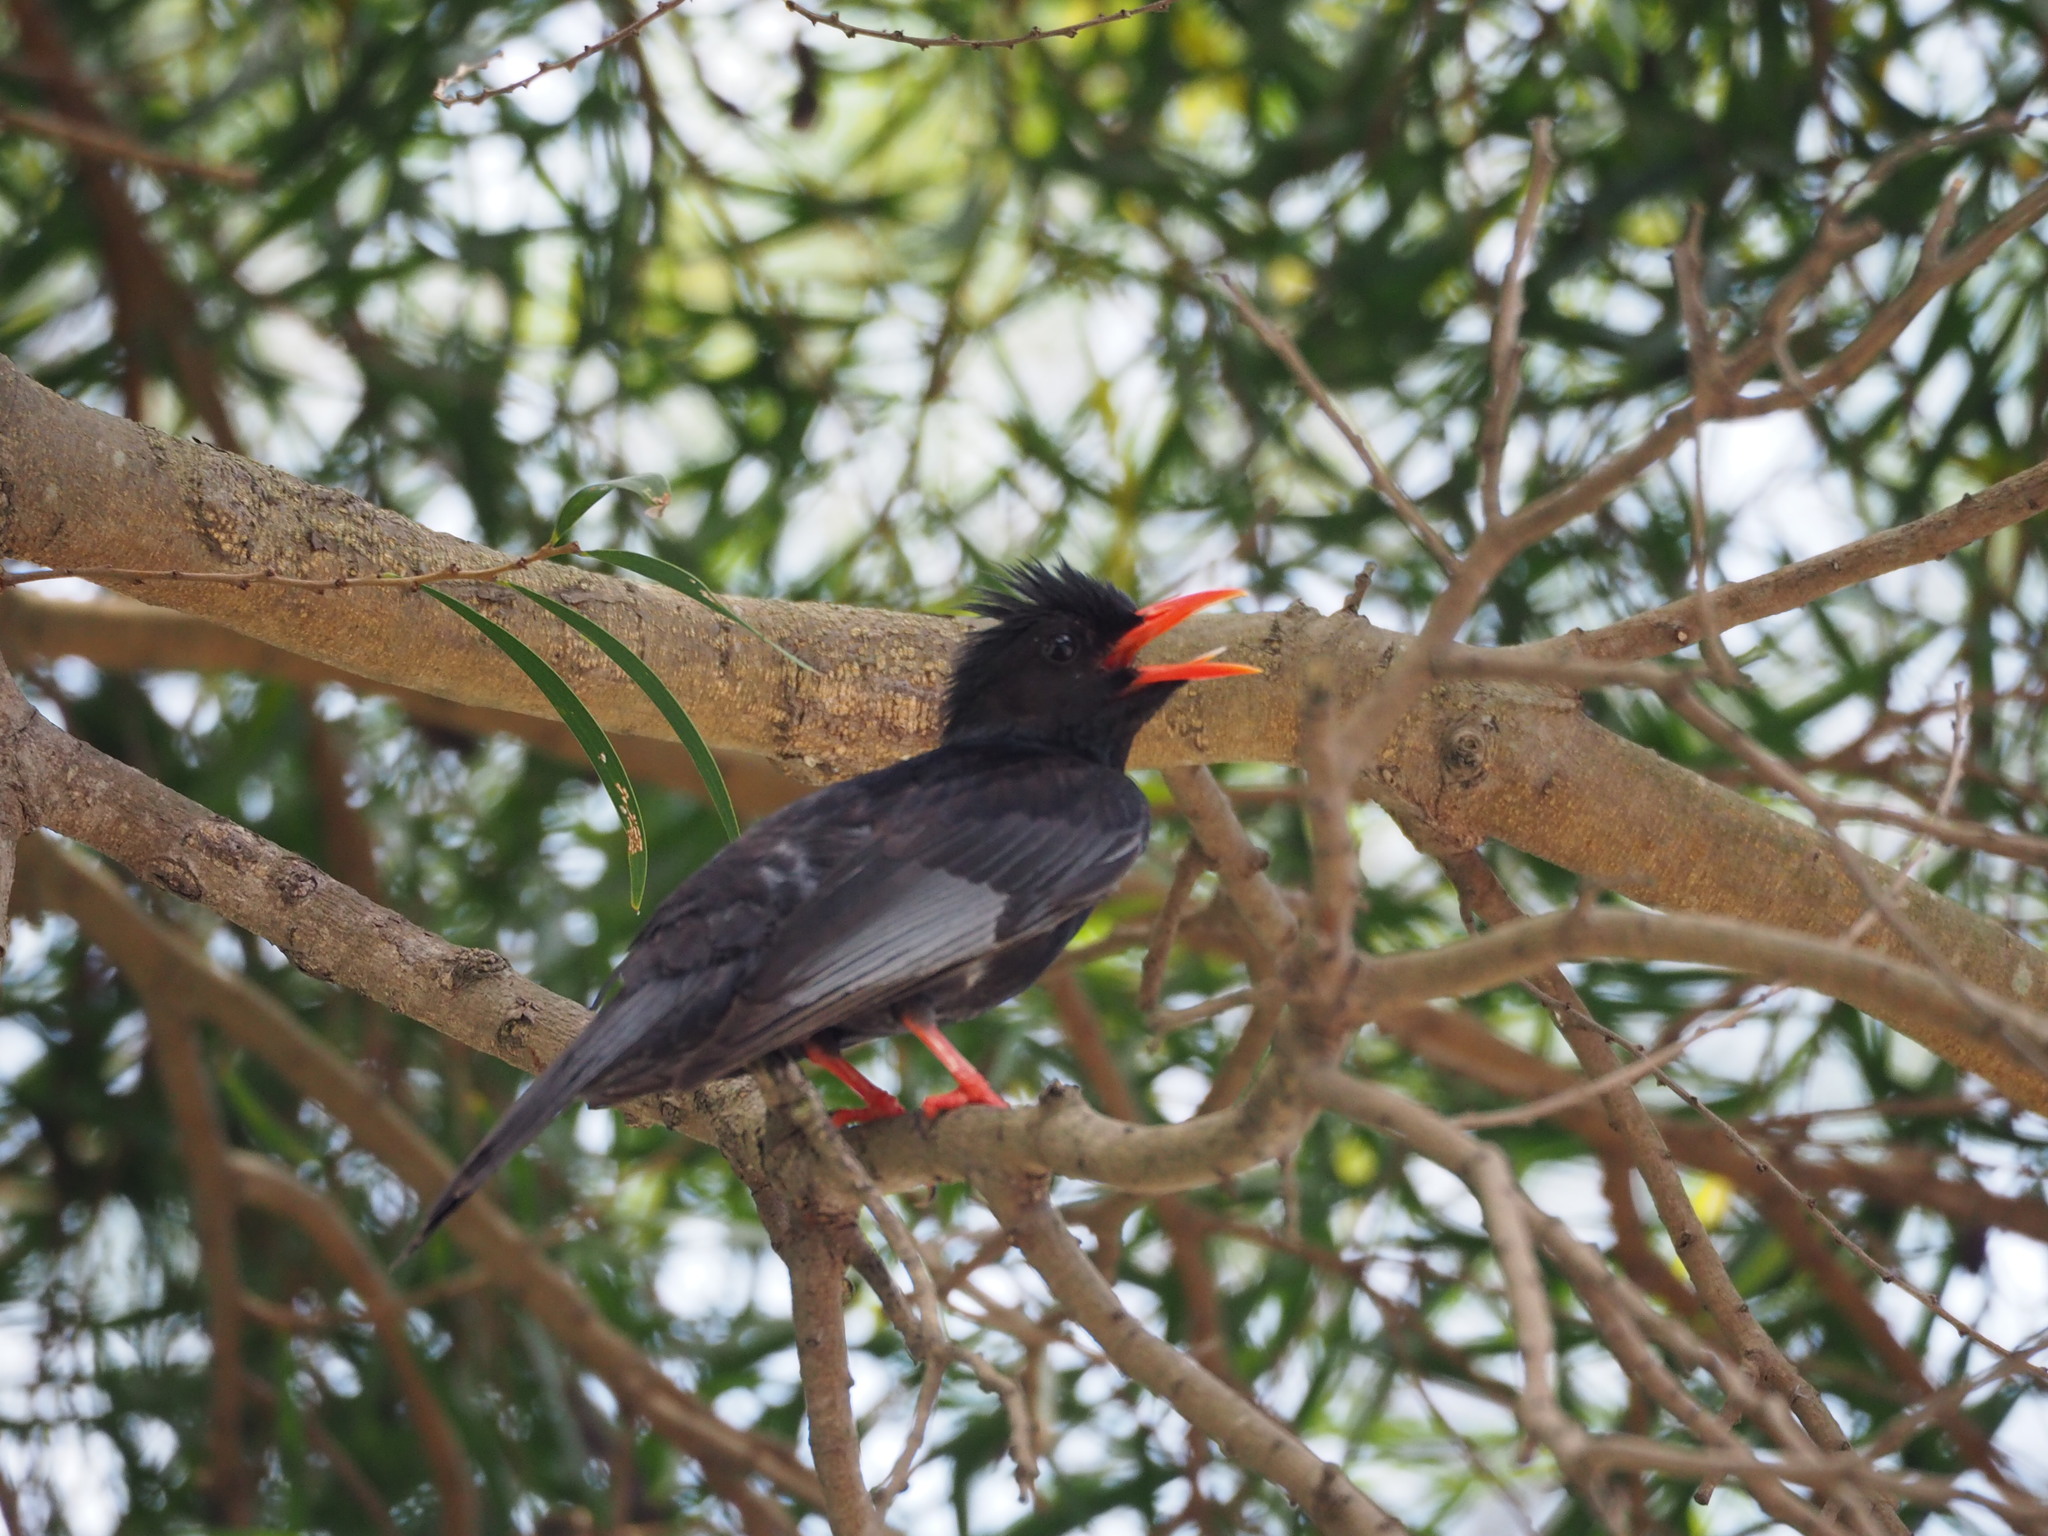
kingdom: Animalia
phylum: Chordata
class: Aves
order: Passeriformes
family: Pycnonotidae
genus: Hypsipetes
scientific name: Hypsipetes leucocephalus
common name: Black bulbul
